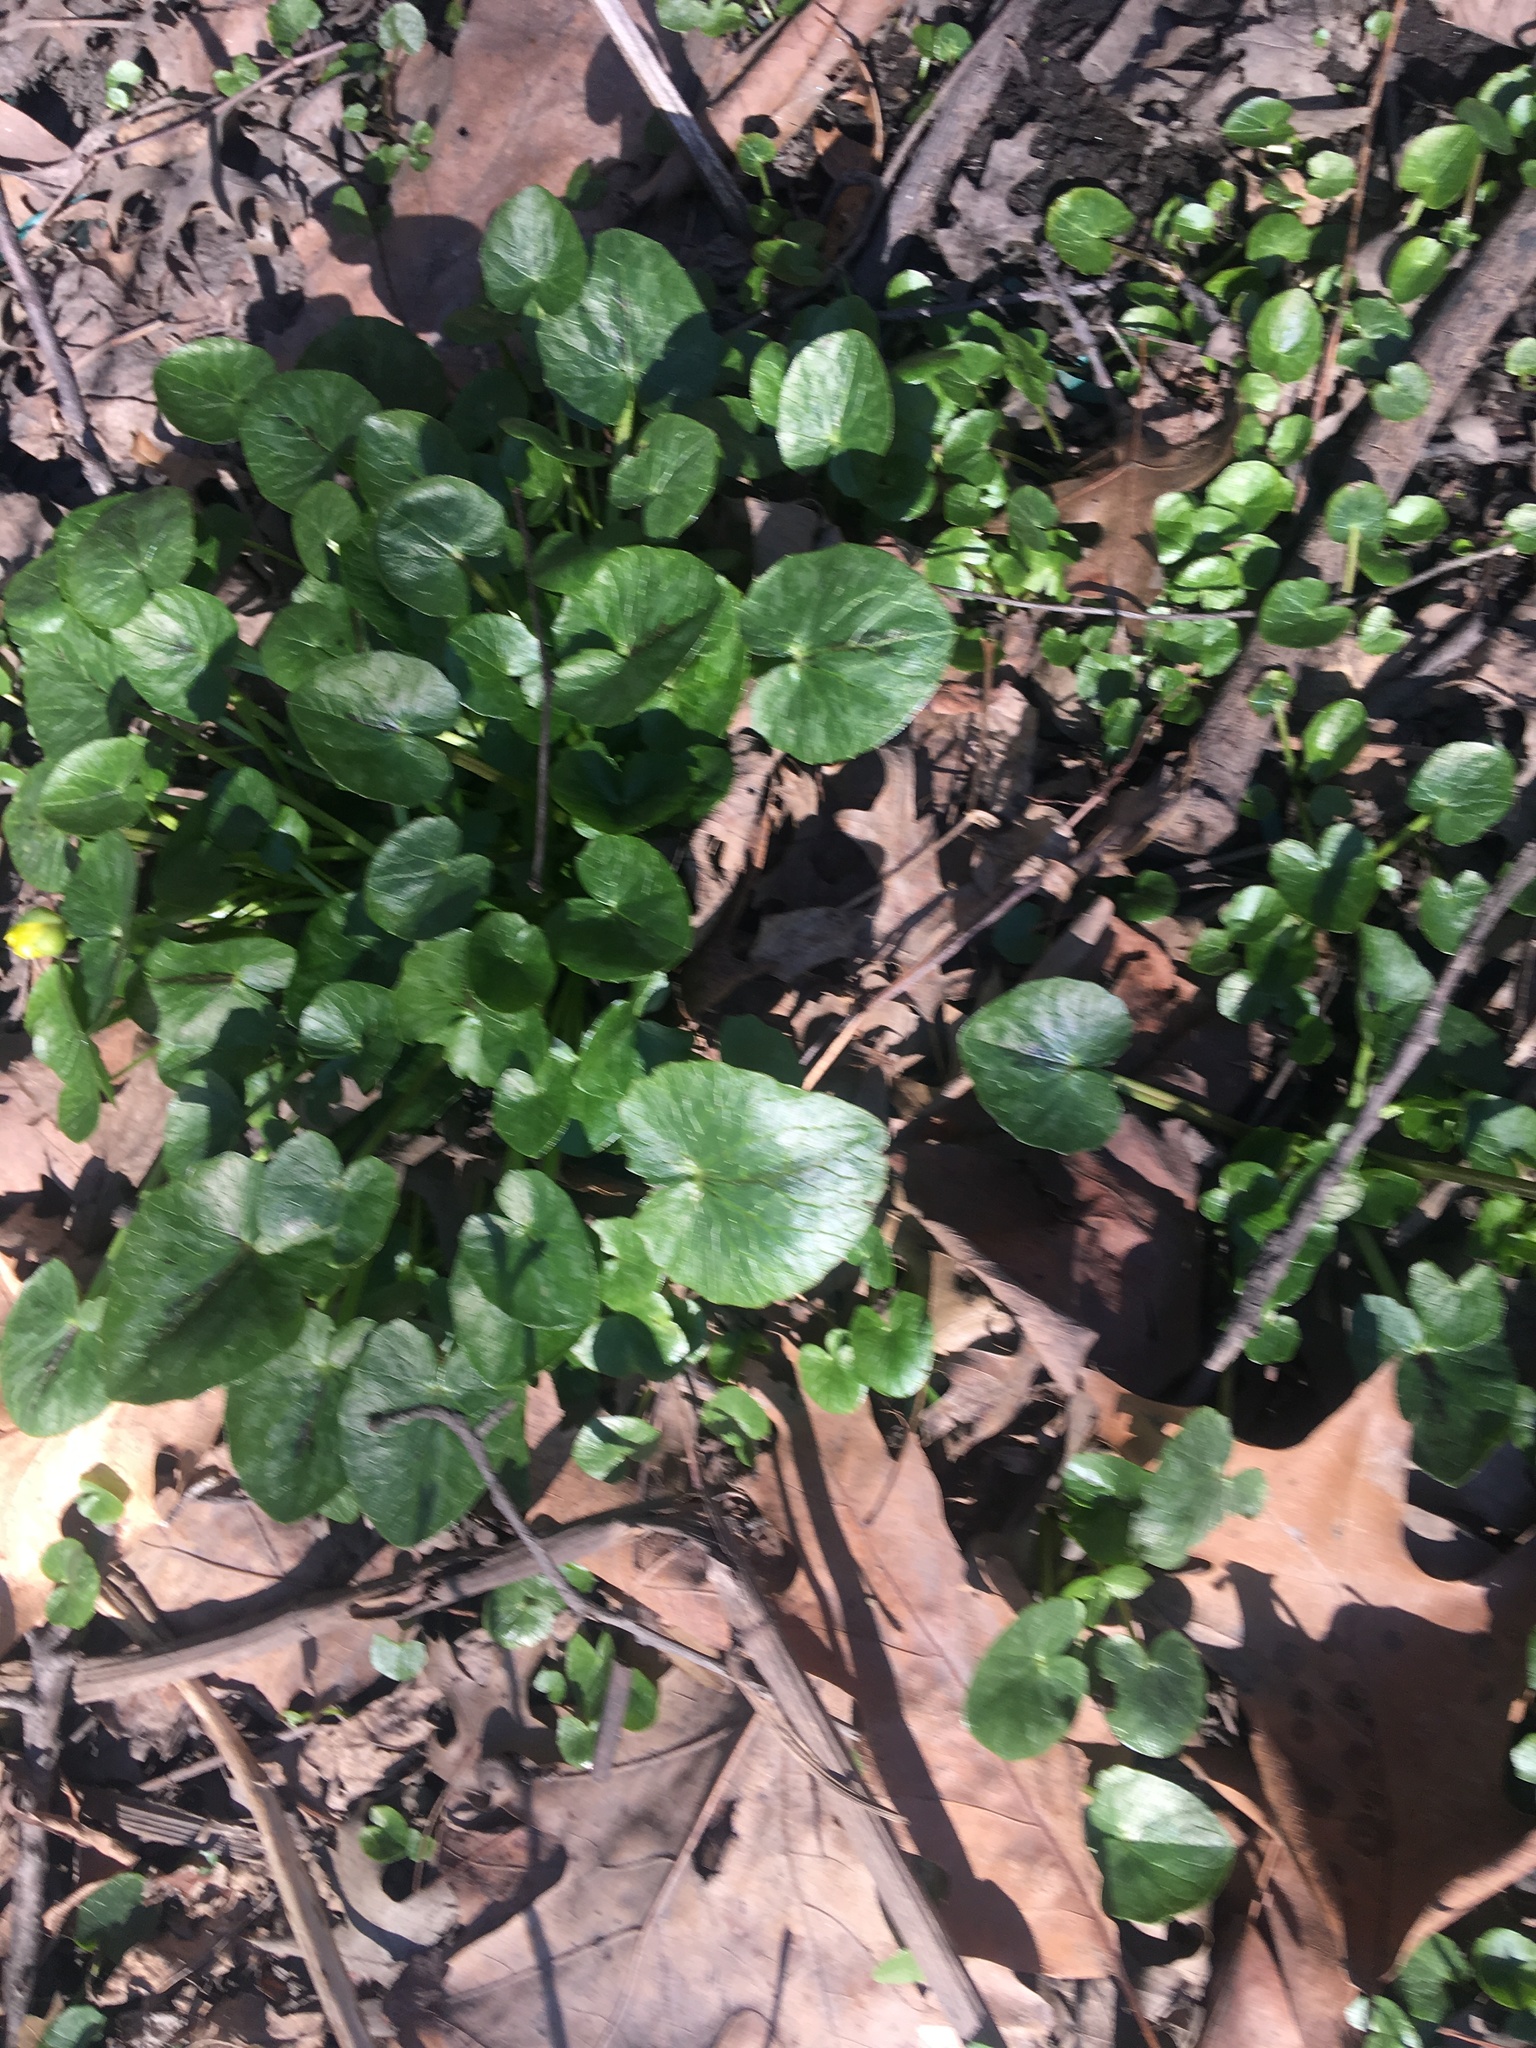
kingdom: Plantae
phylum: Tracheophyta
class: Magnoliopsida
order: Ranunculales
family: Ranunculaceae
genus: Ficaria
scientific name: Ficaria verna
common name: Lesser celandine
